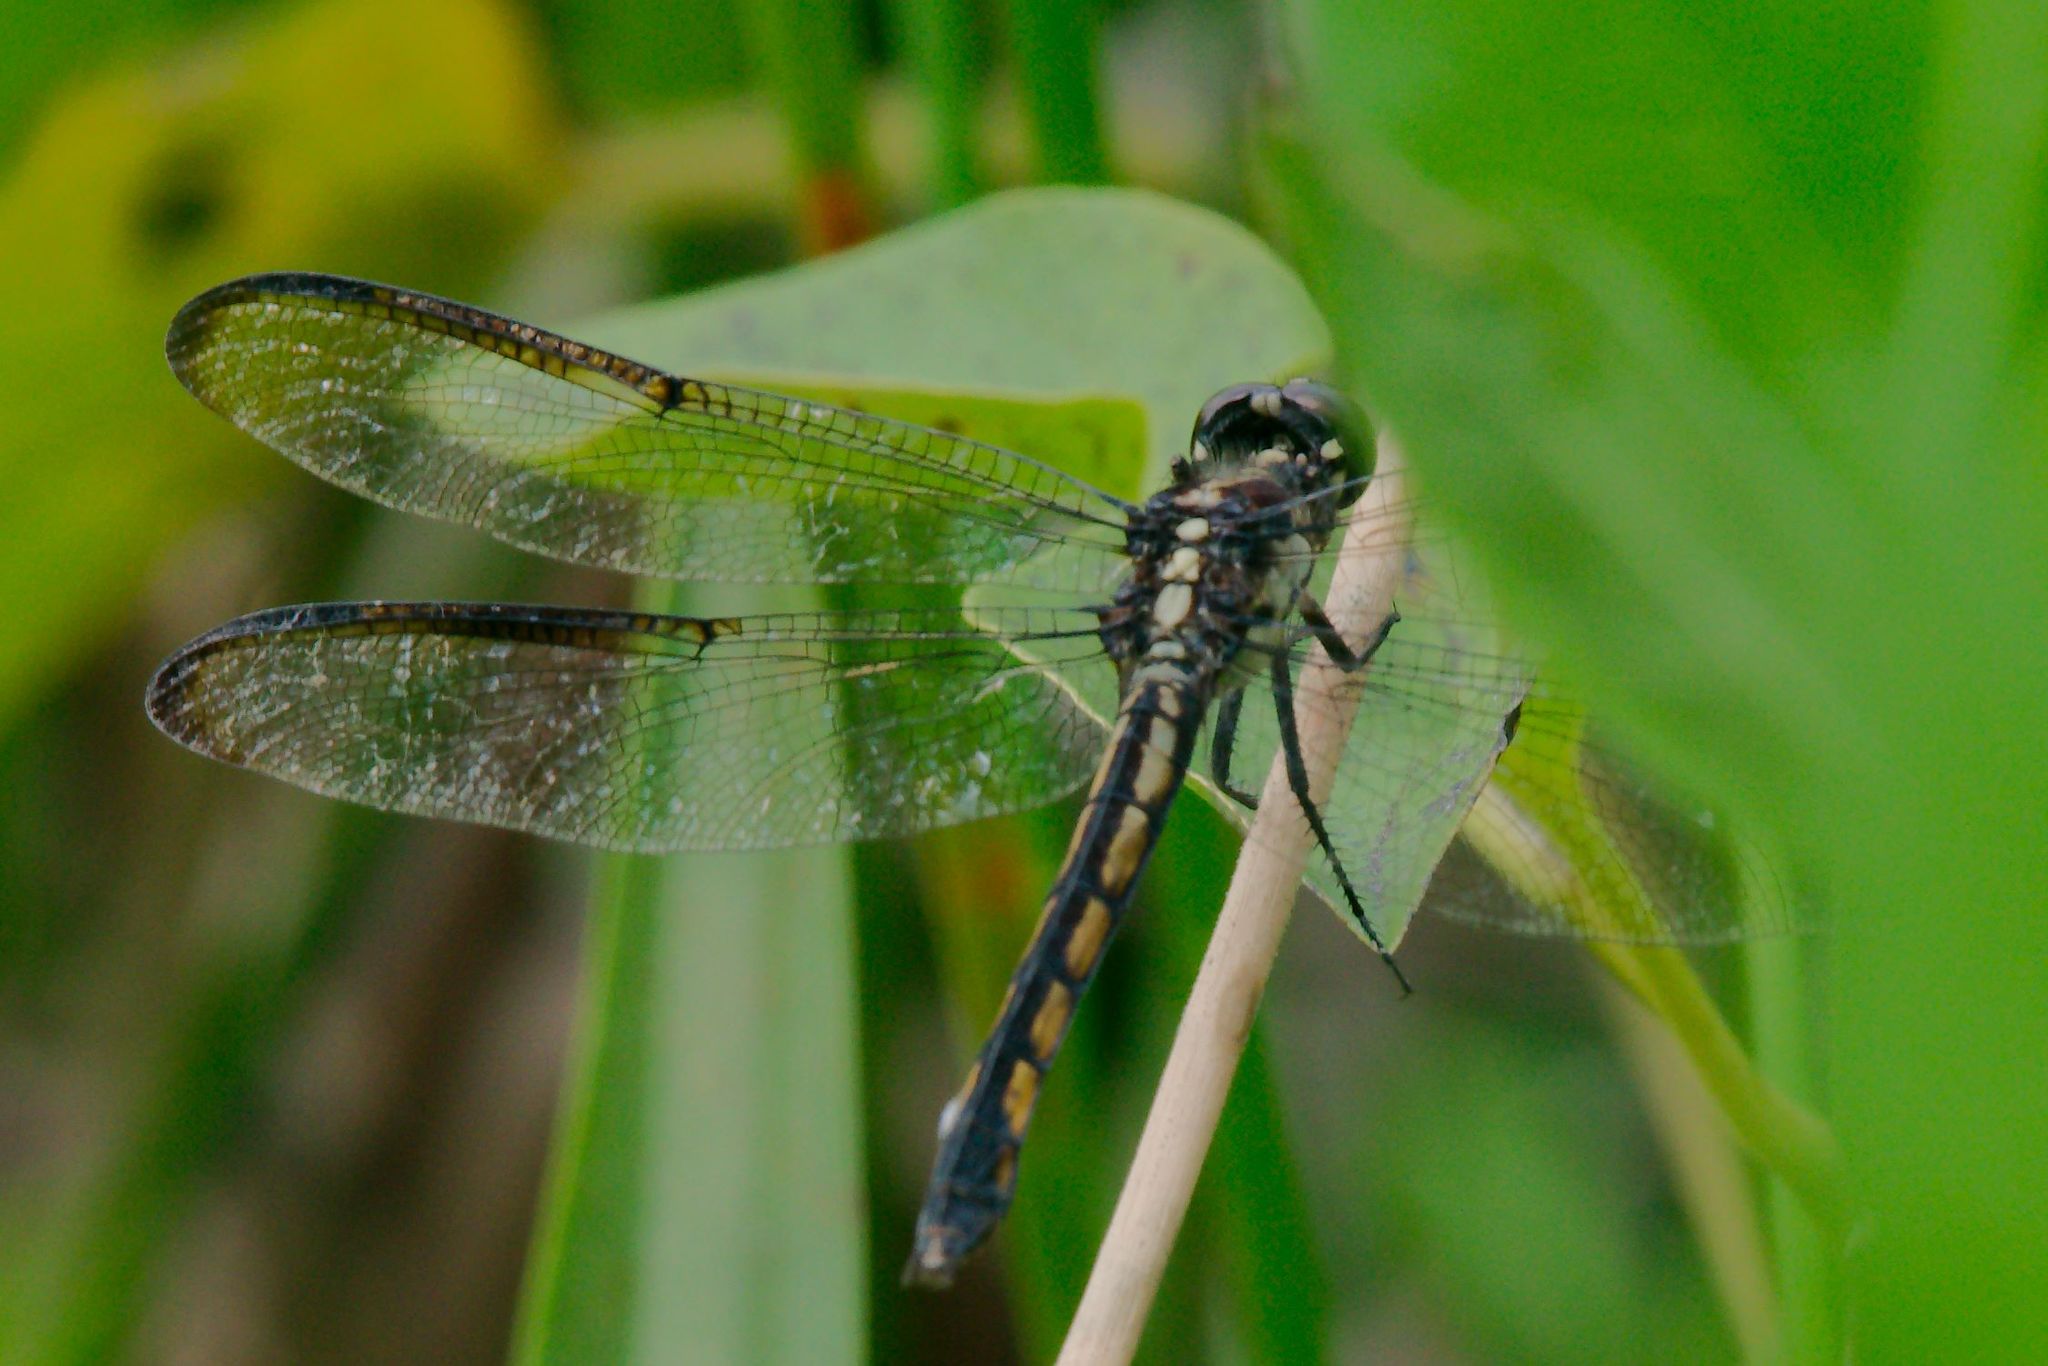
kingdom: Animalia
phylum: Arthropoda
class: Insecta
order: Odonata
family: Libellulidae
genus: Libellula
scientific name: Libellula incesta
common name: Slaty skimmer
